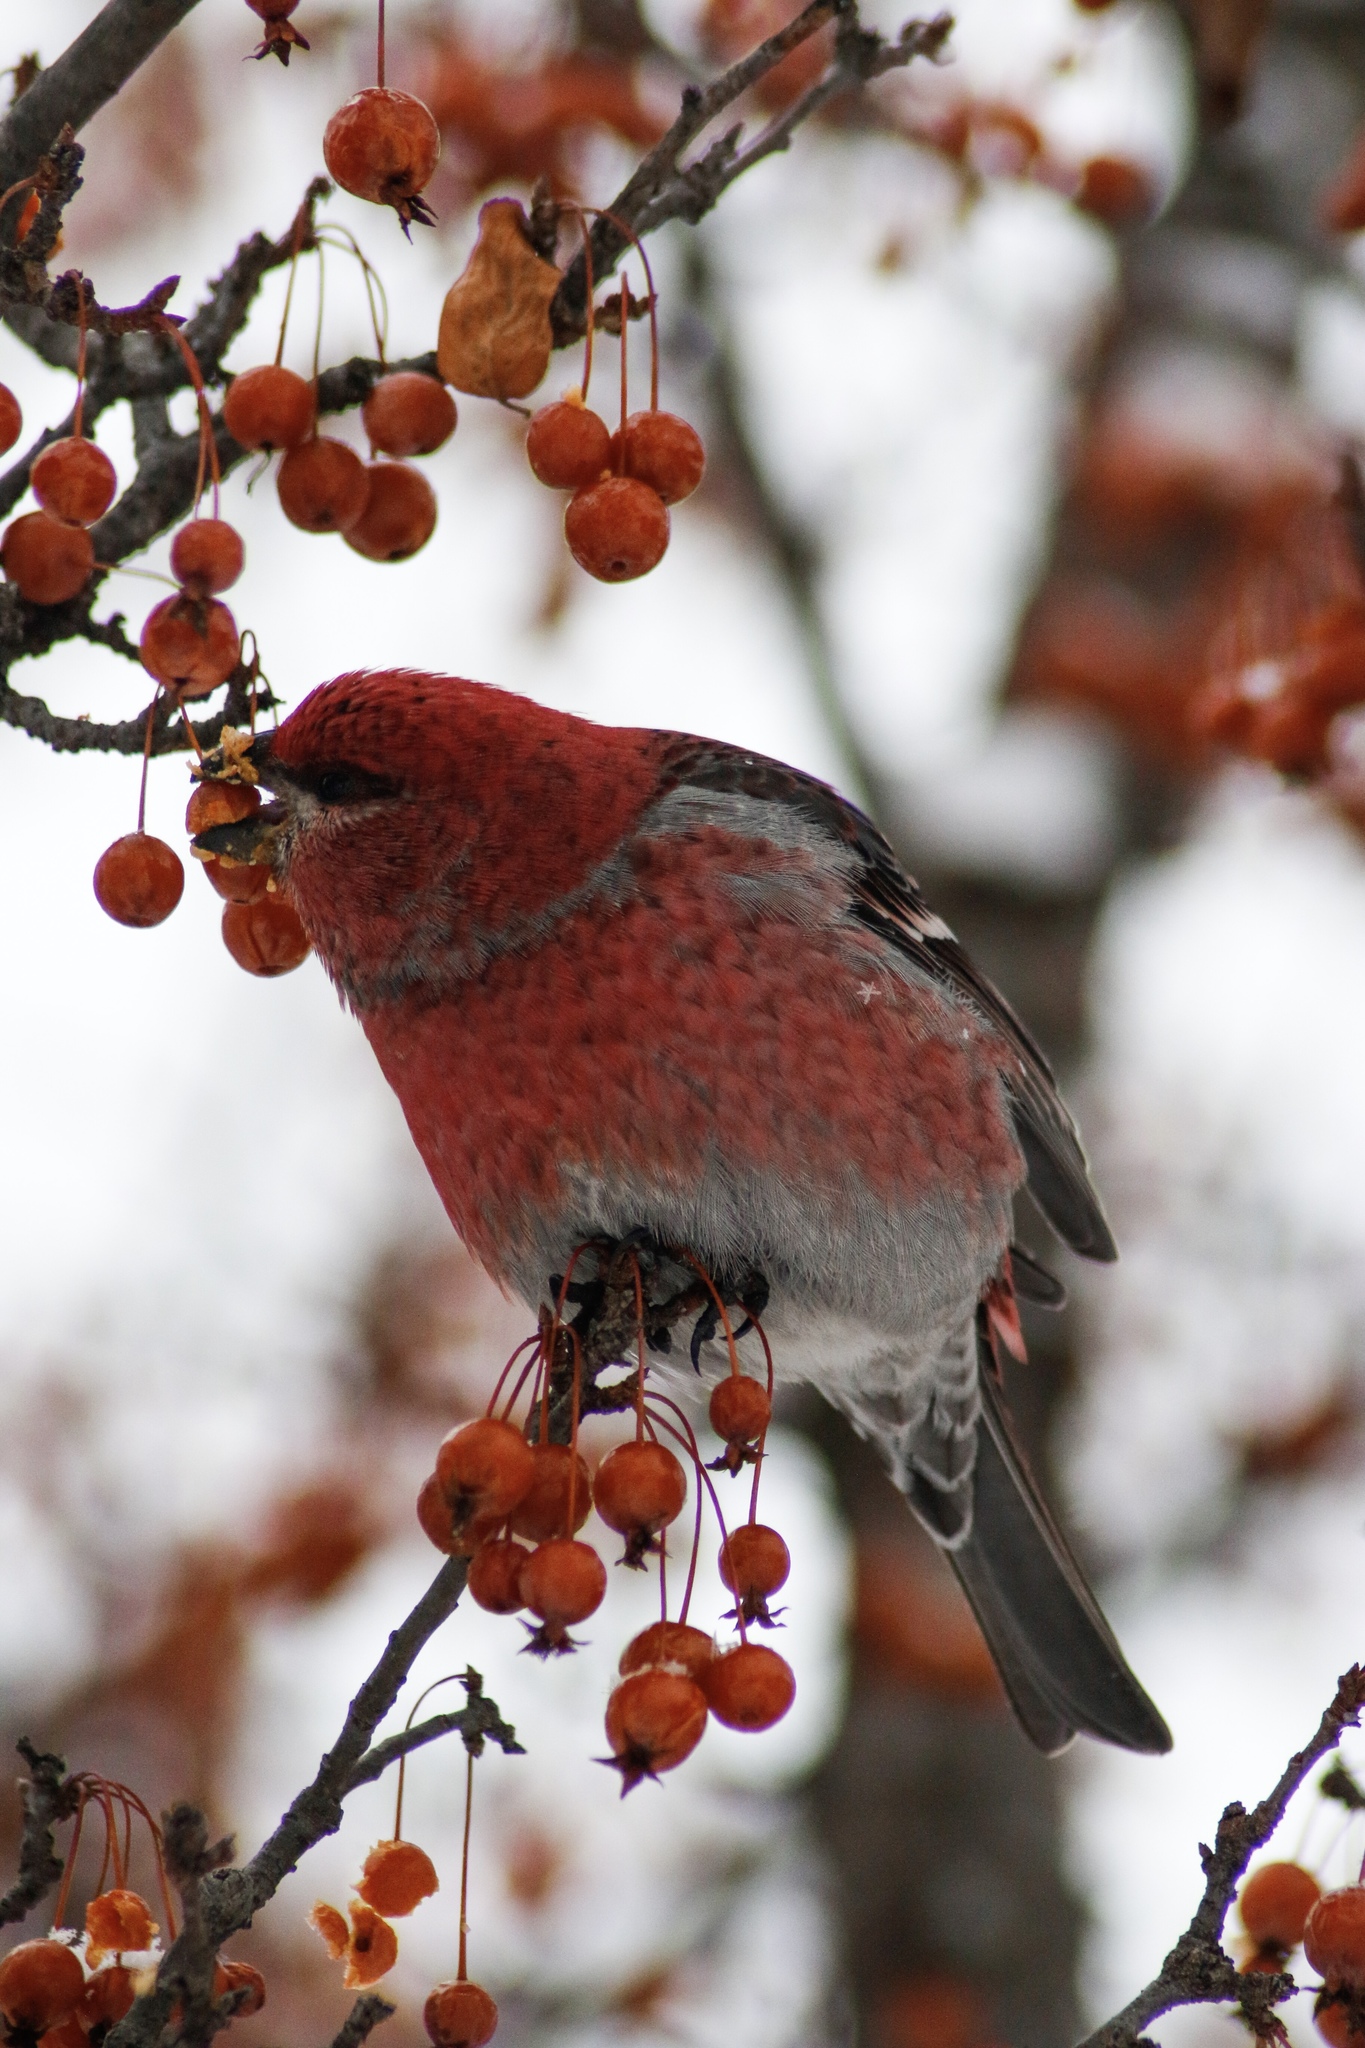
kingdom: Animalia
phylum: Chordata
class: Aves
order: Passeriformes
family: Fringillidae
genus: Pinicola
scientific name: Pinicola enucleator
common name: Pine grosbeak
